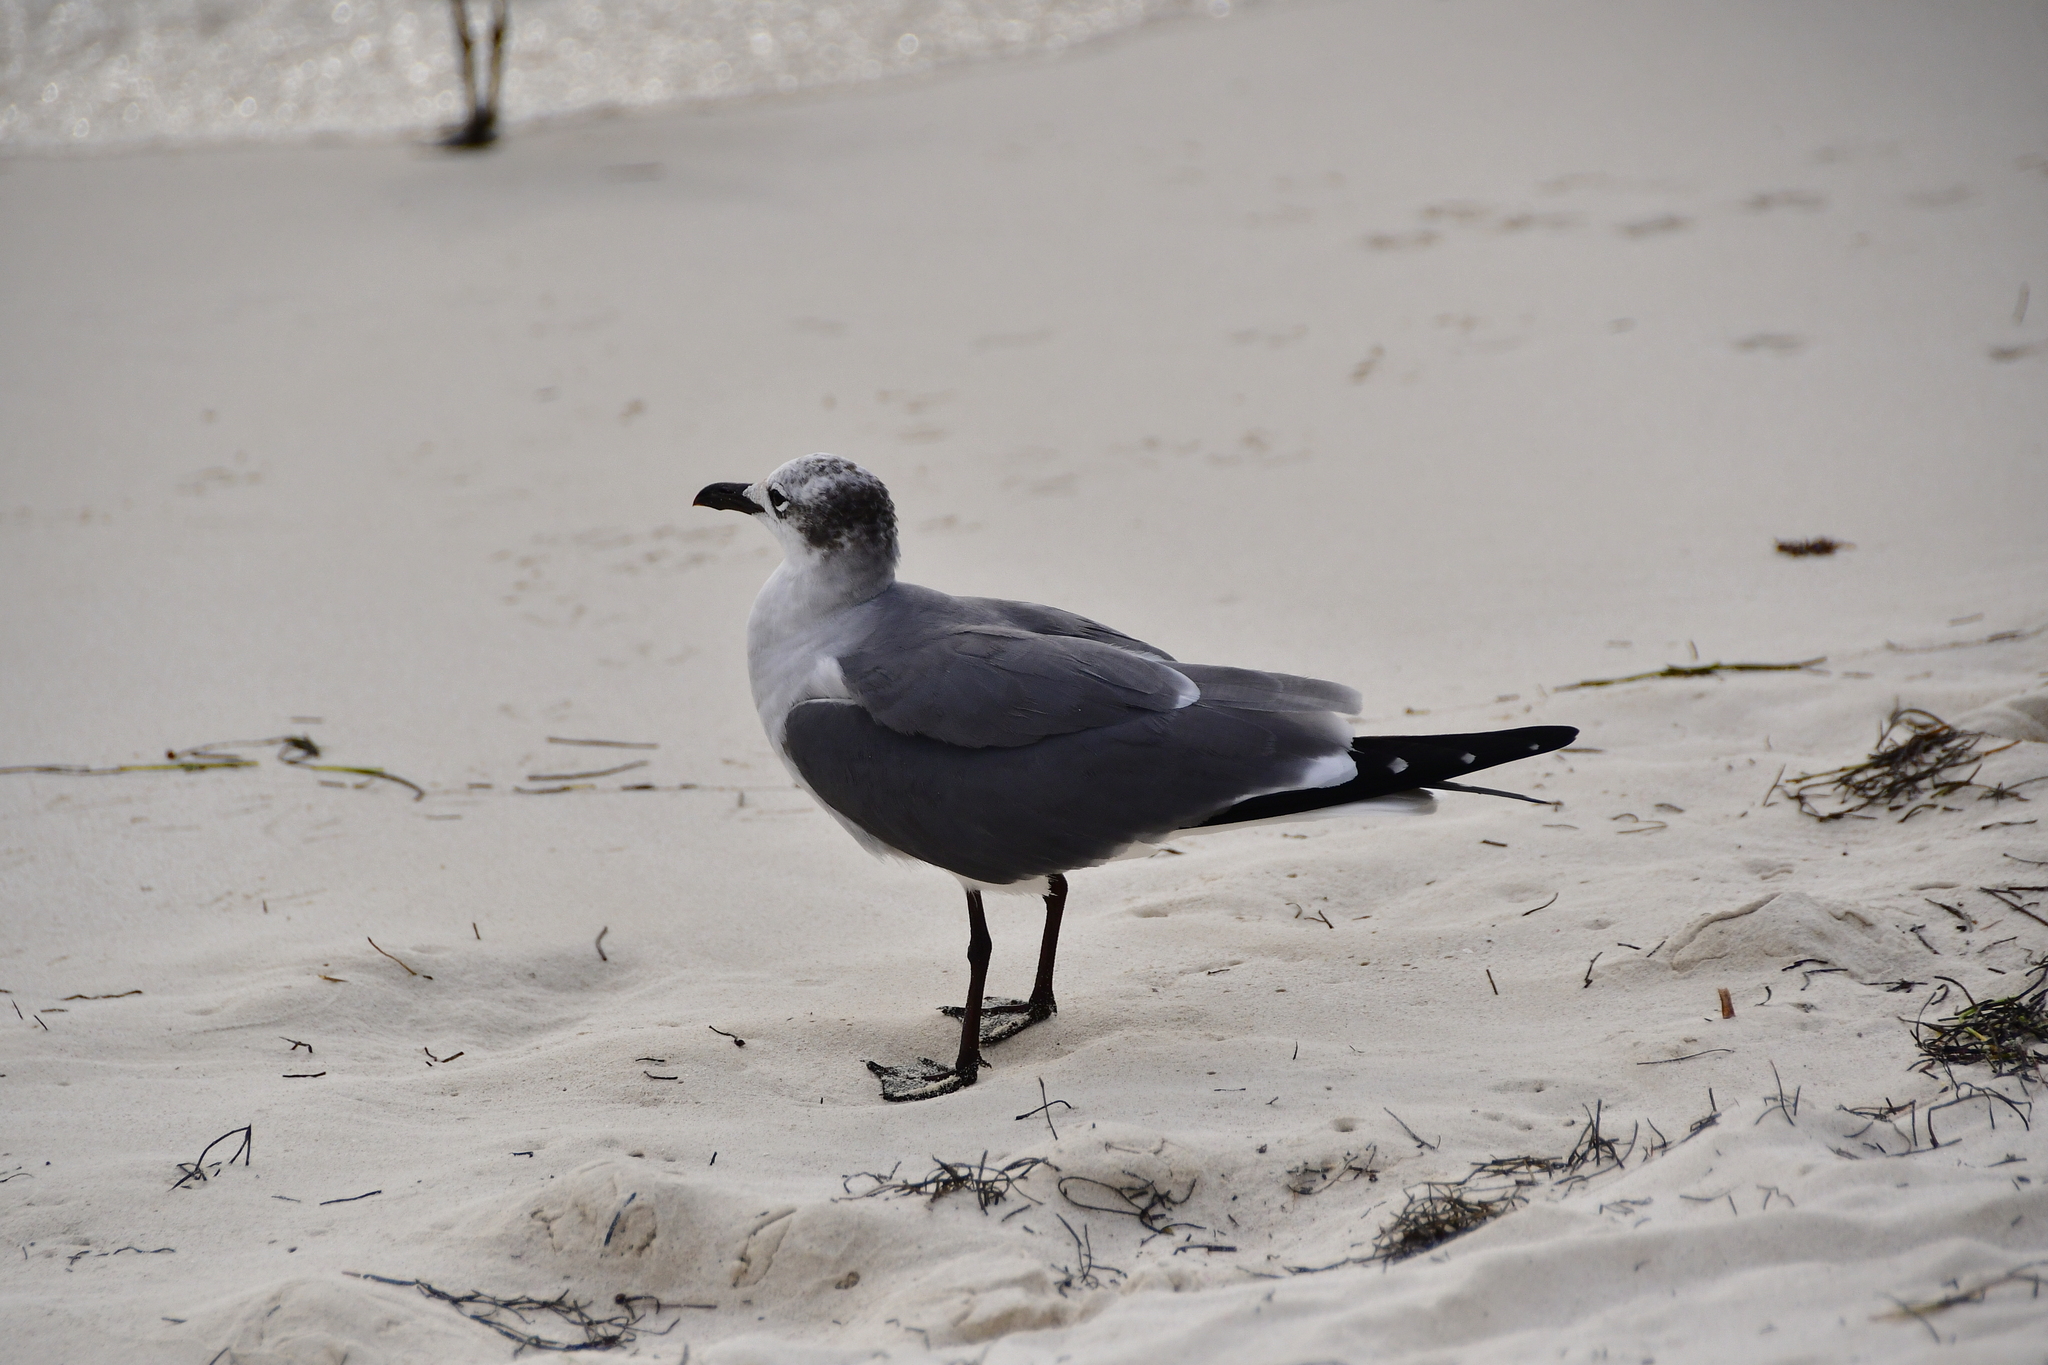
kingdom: Animalia
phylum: Chordata
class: Aves
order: Charadriiformes
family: Laridae
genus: Leucophaeus
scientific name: Leucophaeus atricilla
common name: Laughing gull
